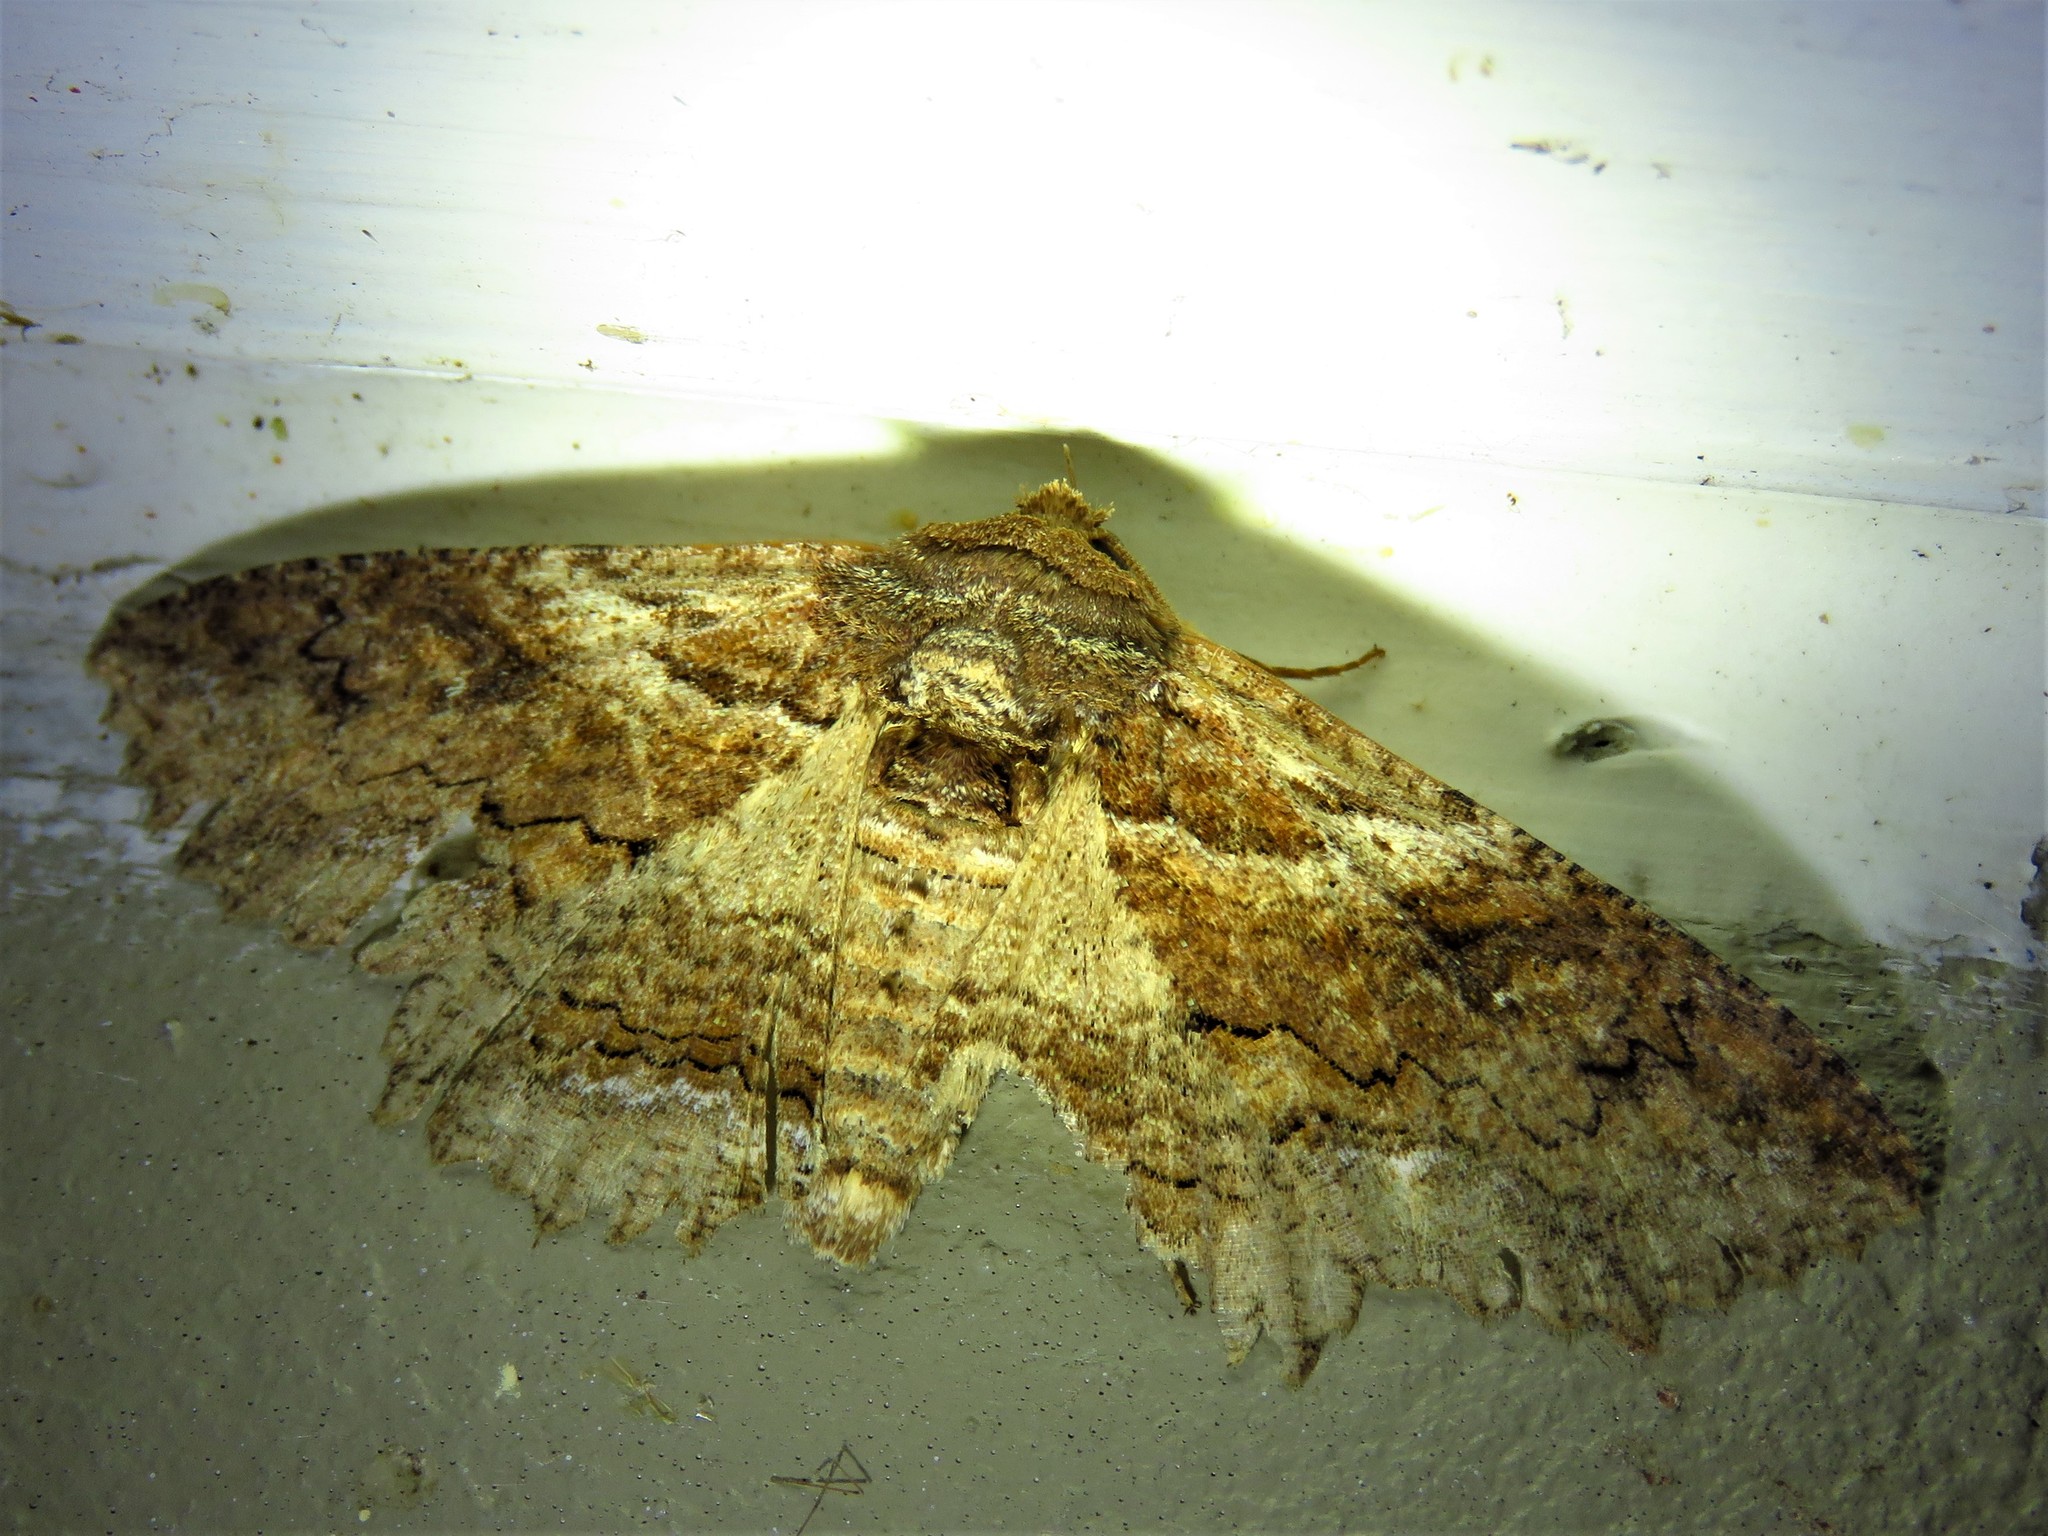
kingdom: Animalia
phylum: Arthropoda
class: Insecta
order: Lepidoptera
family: Erebidae
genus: Zale
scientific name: Zale lunata
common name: Lunate zale moth
